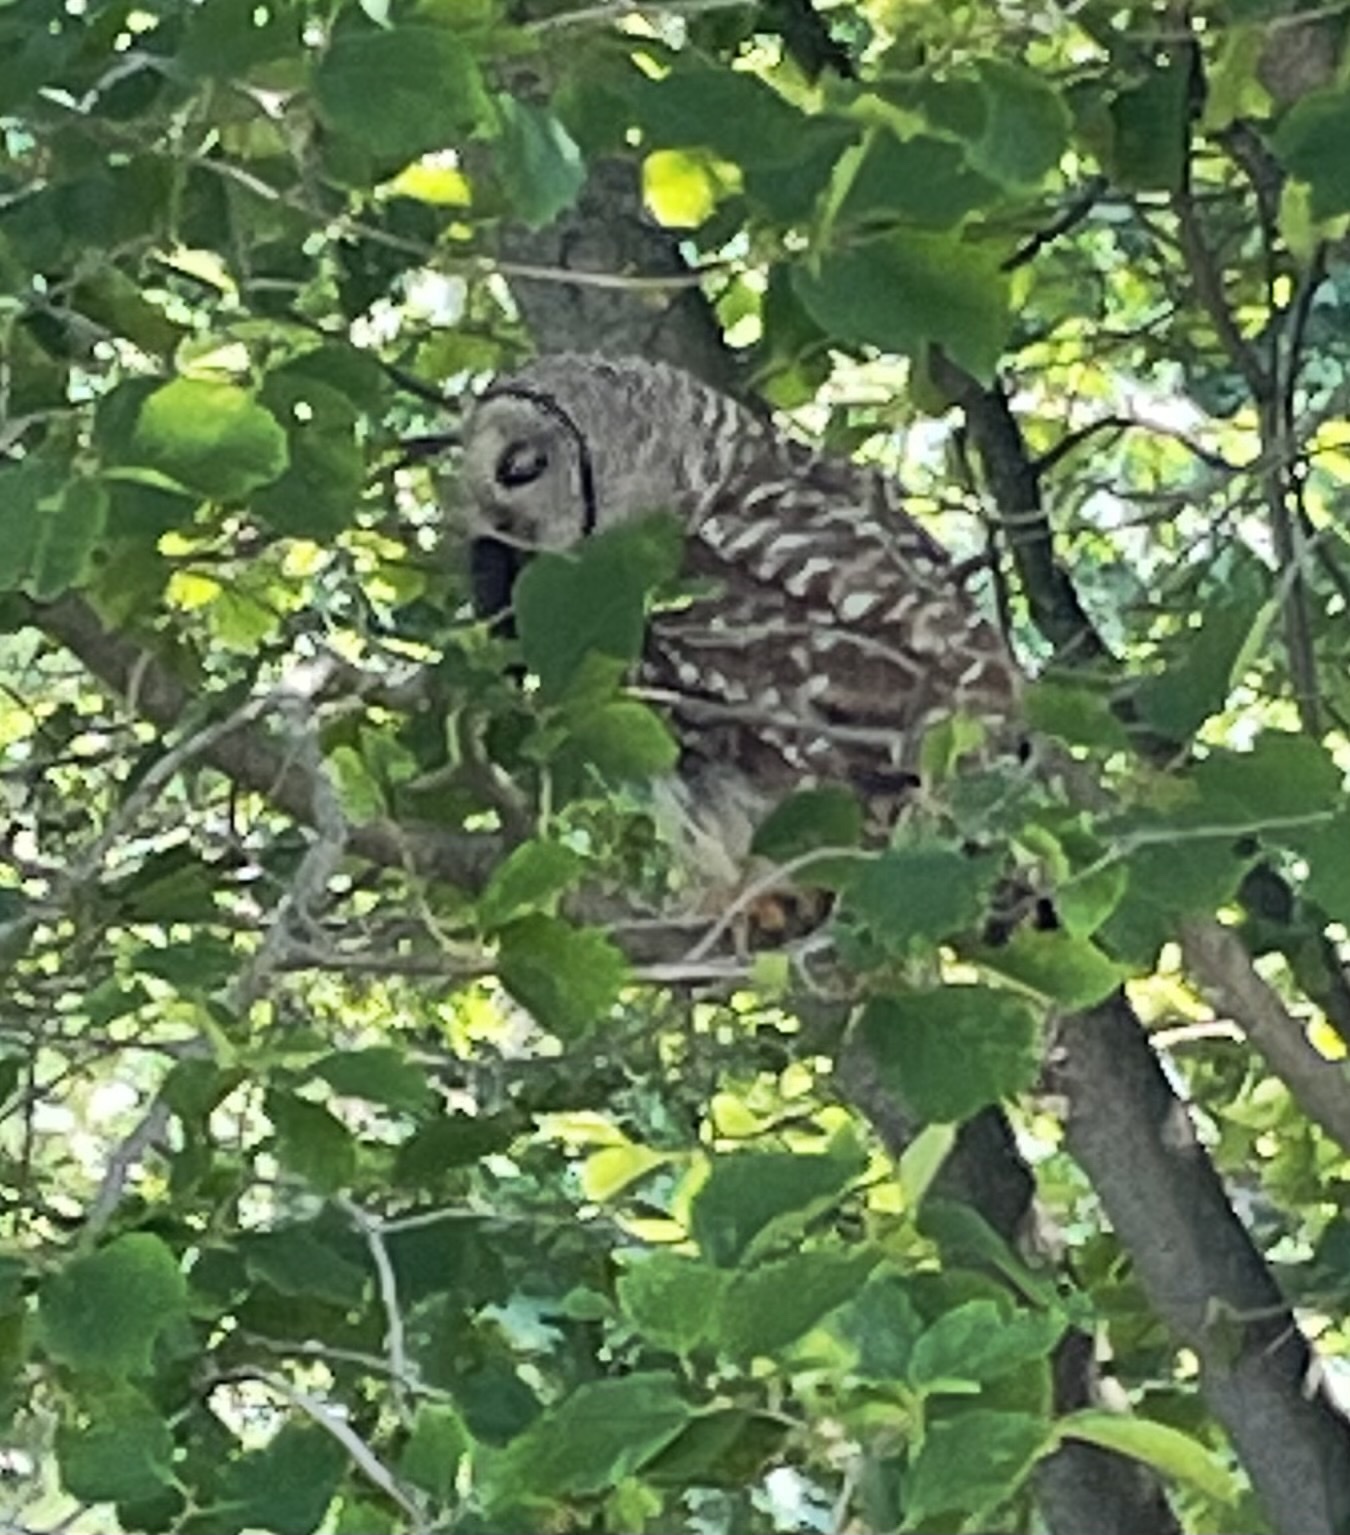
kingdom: Animalia
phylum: Chordata
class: Aves
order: Strigiformes
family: Strigidae
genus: Strix
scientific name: Strix varia
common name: Barred owl
